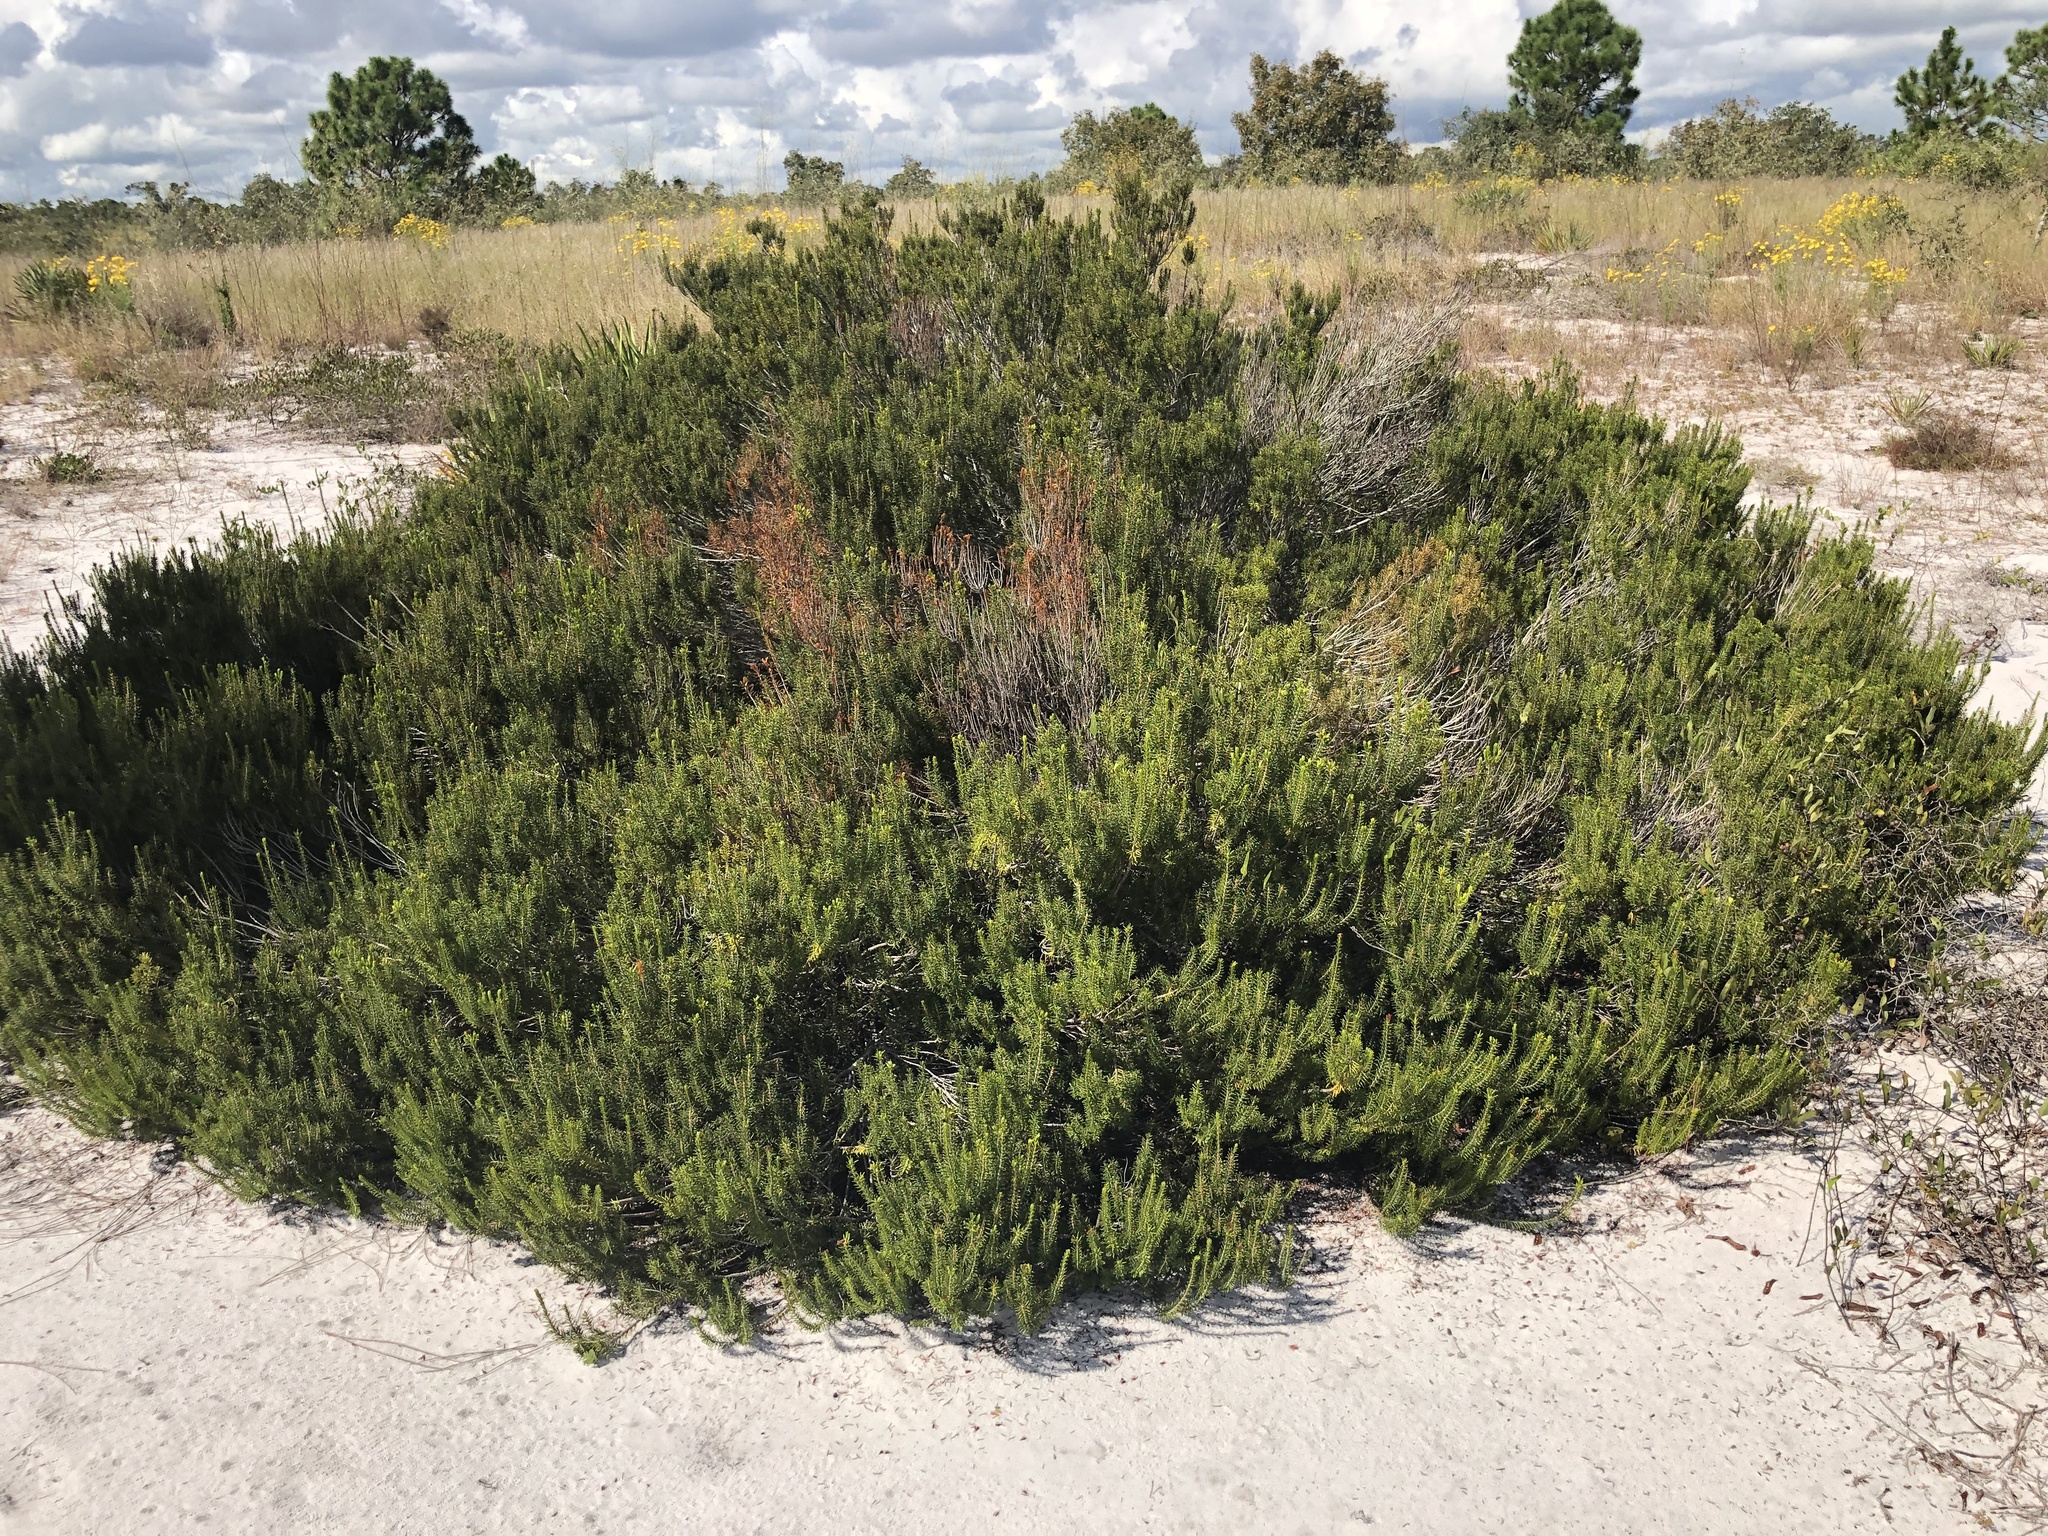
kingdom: Plantae
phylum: Tracheophyta
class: Magnoliopsida
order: Ericales
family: Ericaceae
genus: Ceratiola
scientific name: Ceratiola ericoides
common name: Sandhill-rosemary
